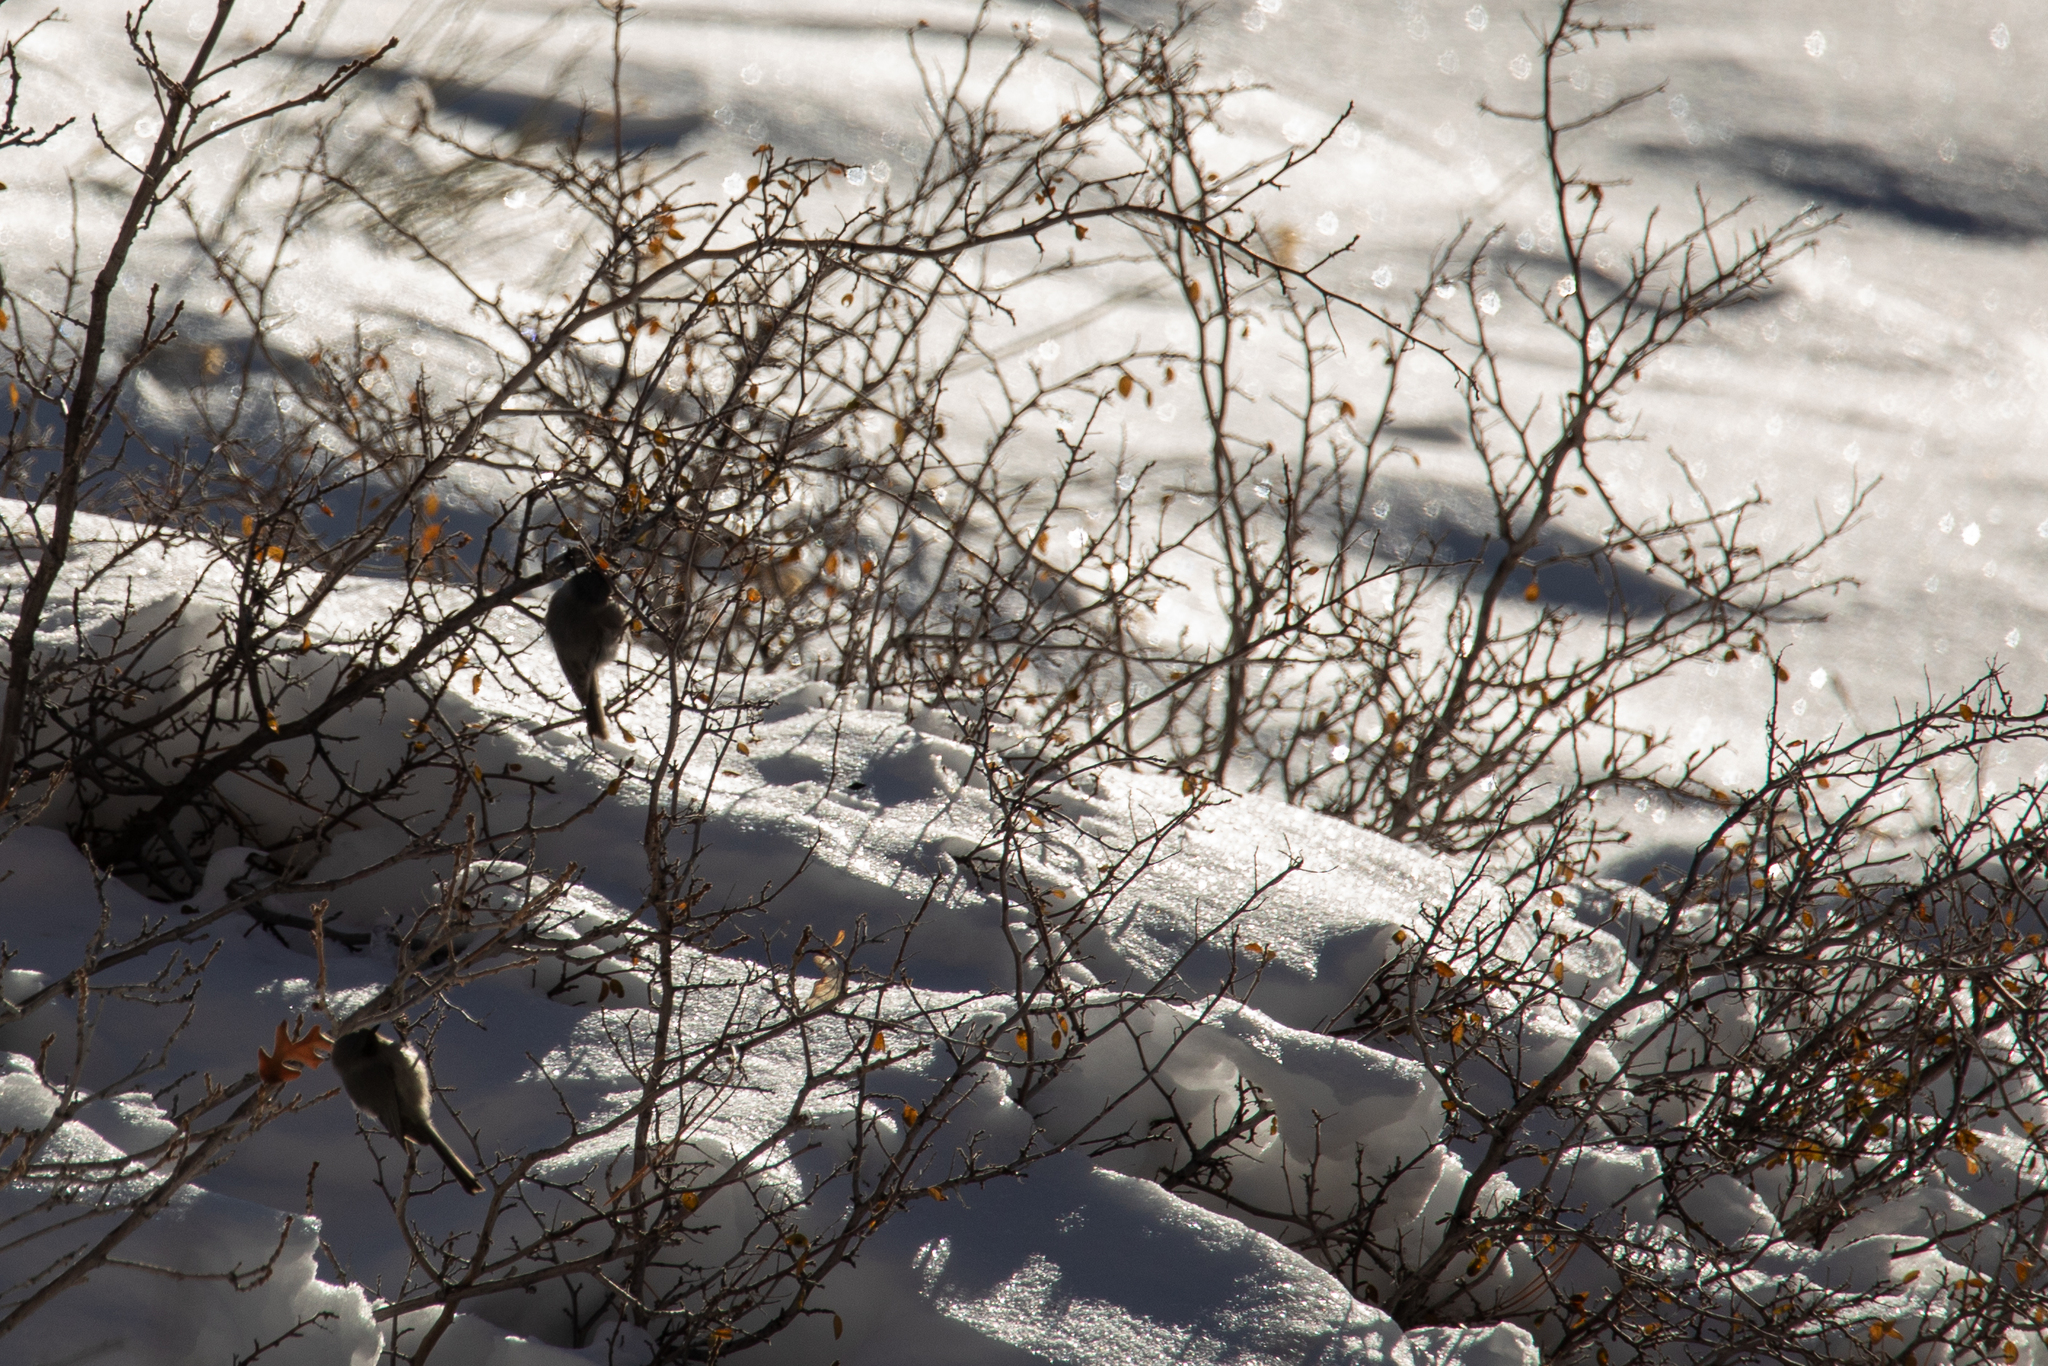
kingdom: Animalia
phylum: Chordata
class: Aves
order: Passeriformes
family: Aegithalidae
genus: Psaltriparus
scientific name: Psaltriparus minimus
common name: American bushtit
